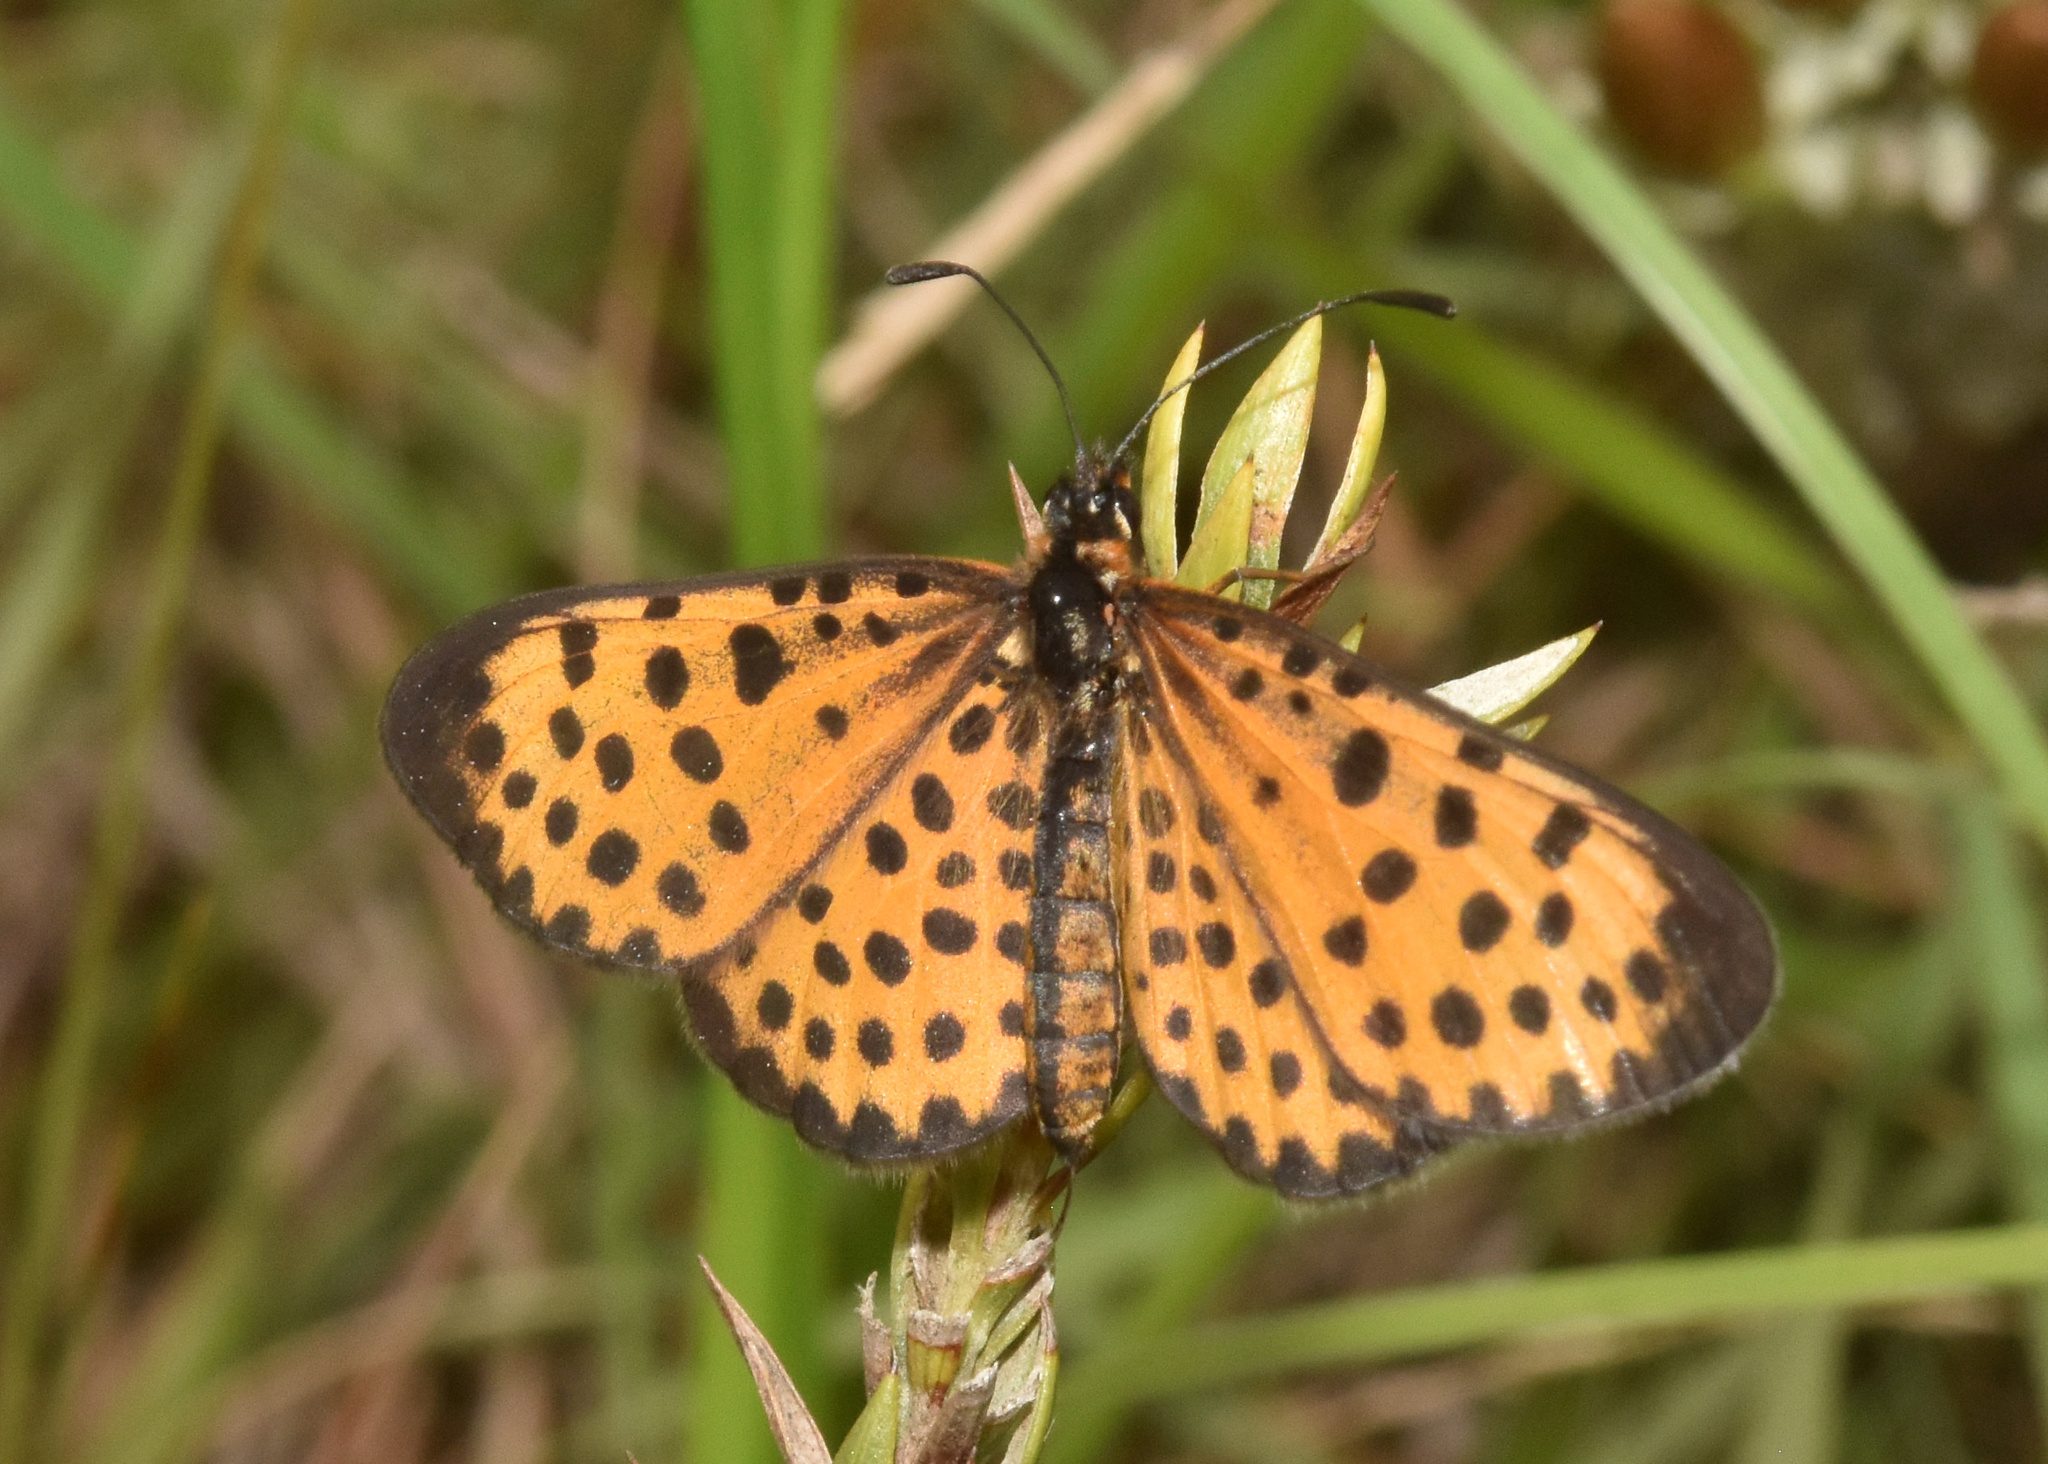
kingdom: Animalia
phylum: Arthropoda
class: Insecta
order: Lepidoptera
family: Nymphalidae
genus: Pardopsis
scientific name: Pardopsis punctatissima
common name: Polka dot
